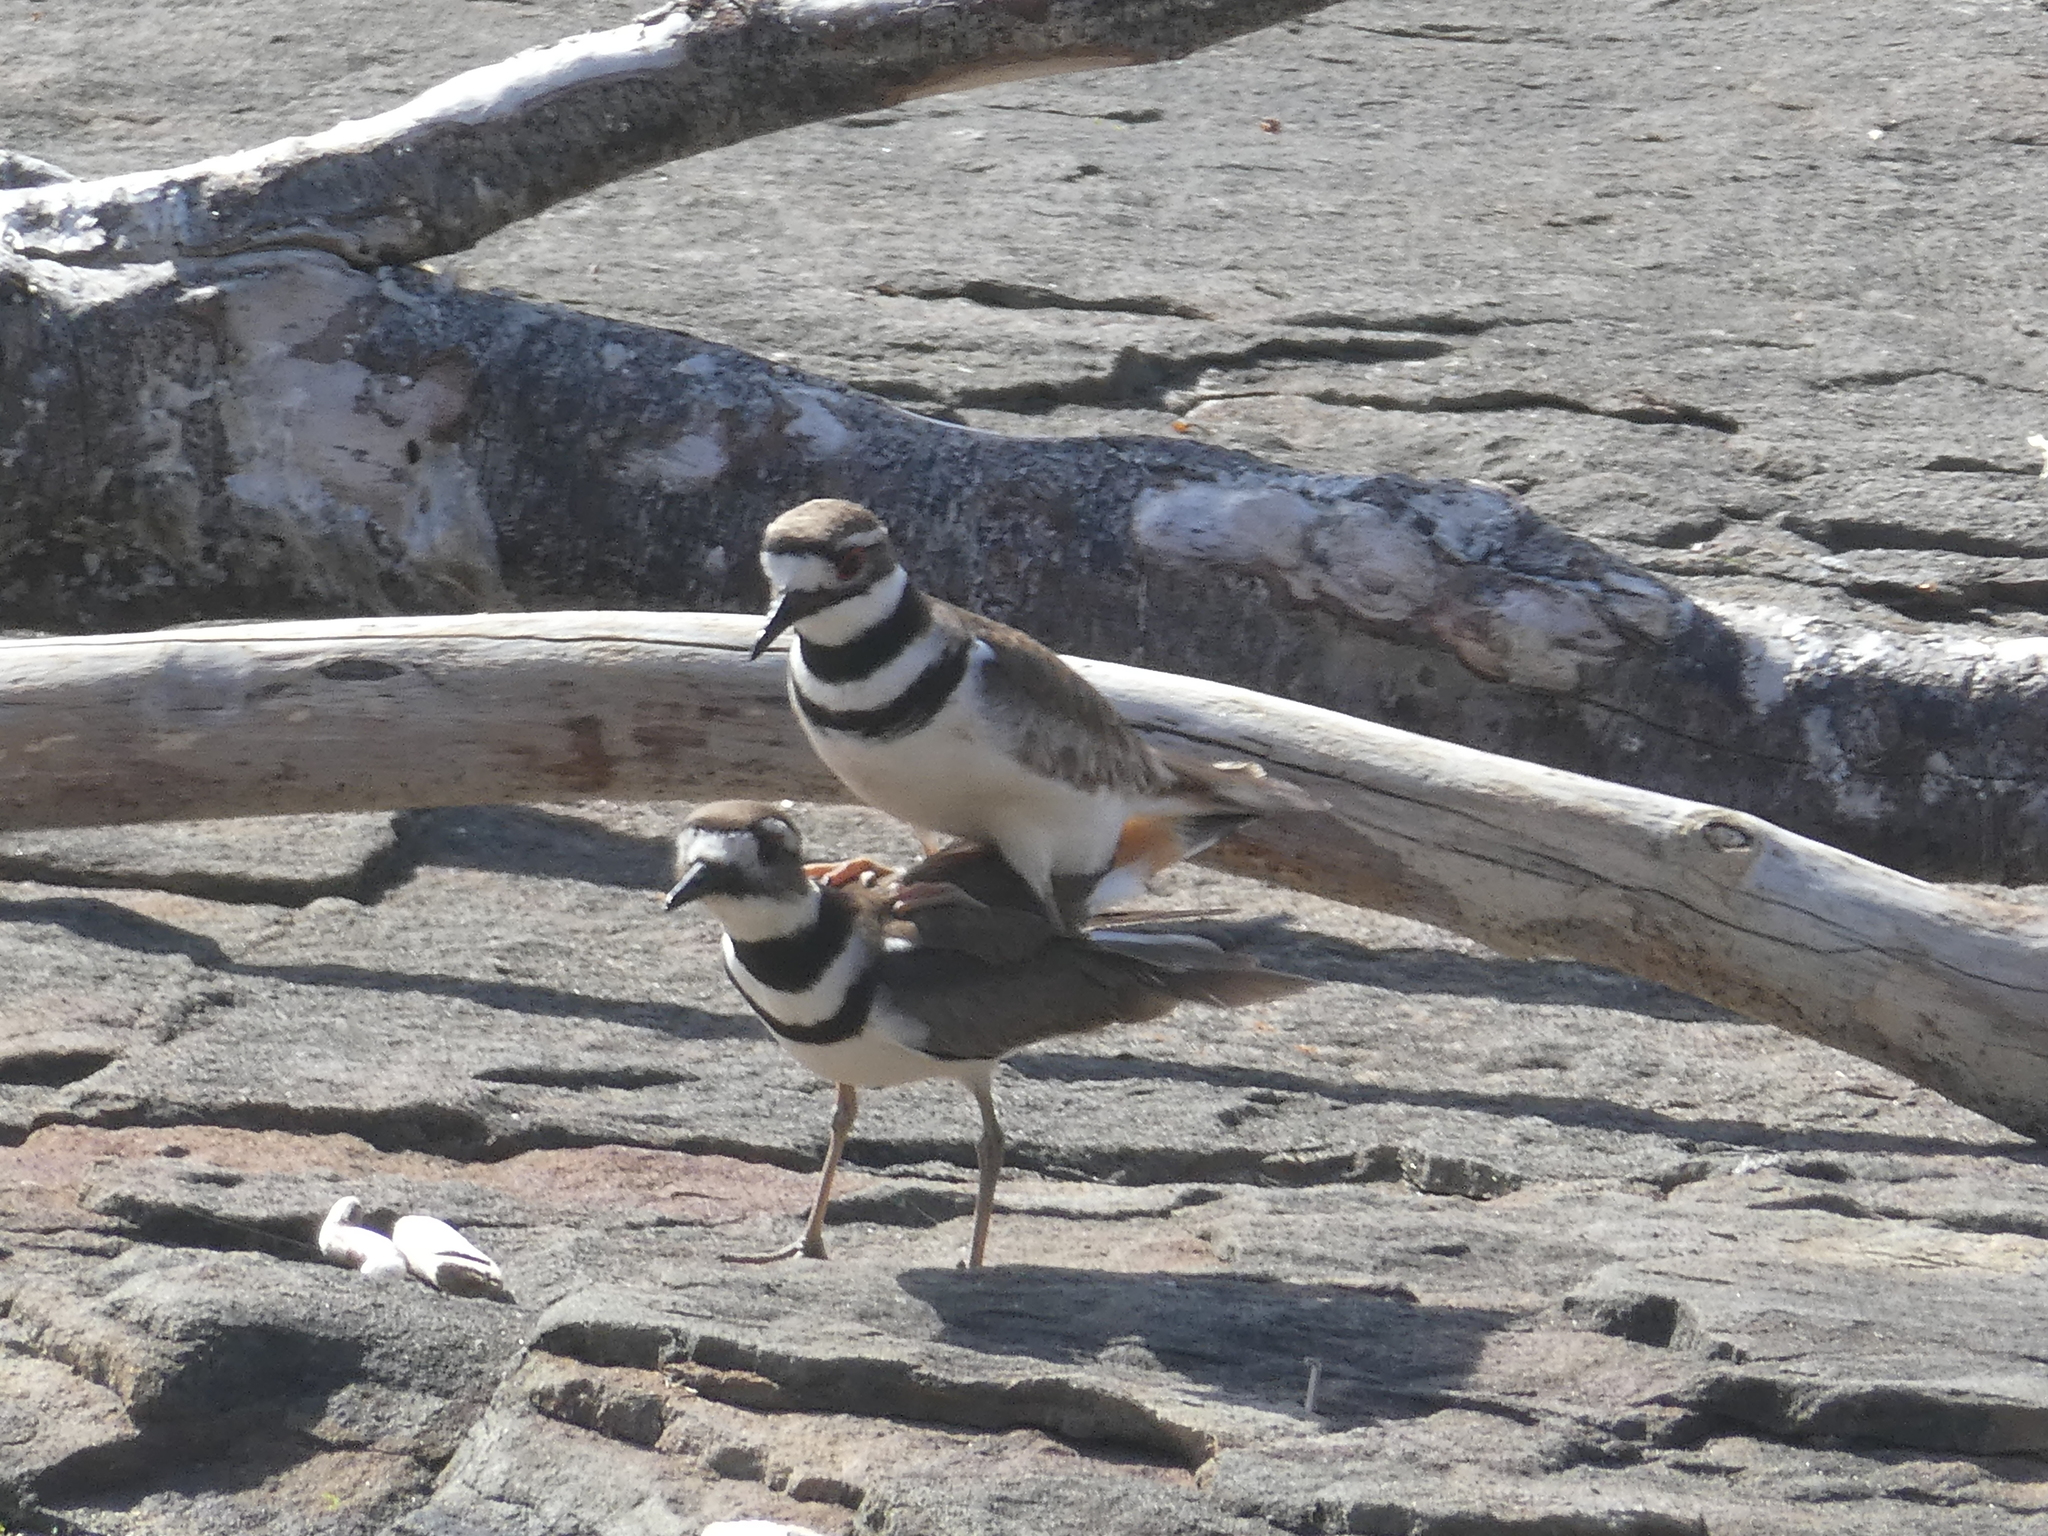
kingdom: Animalia
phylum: Chordata
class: Aves
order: Charadriiformes
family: Charadriidae
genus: Charadrius
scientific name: Charadrius vociferus
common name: Killdeer
